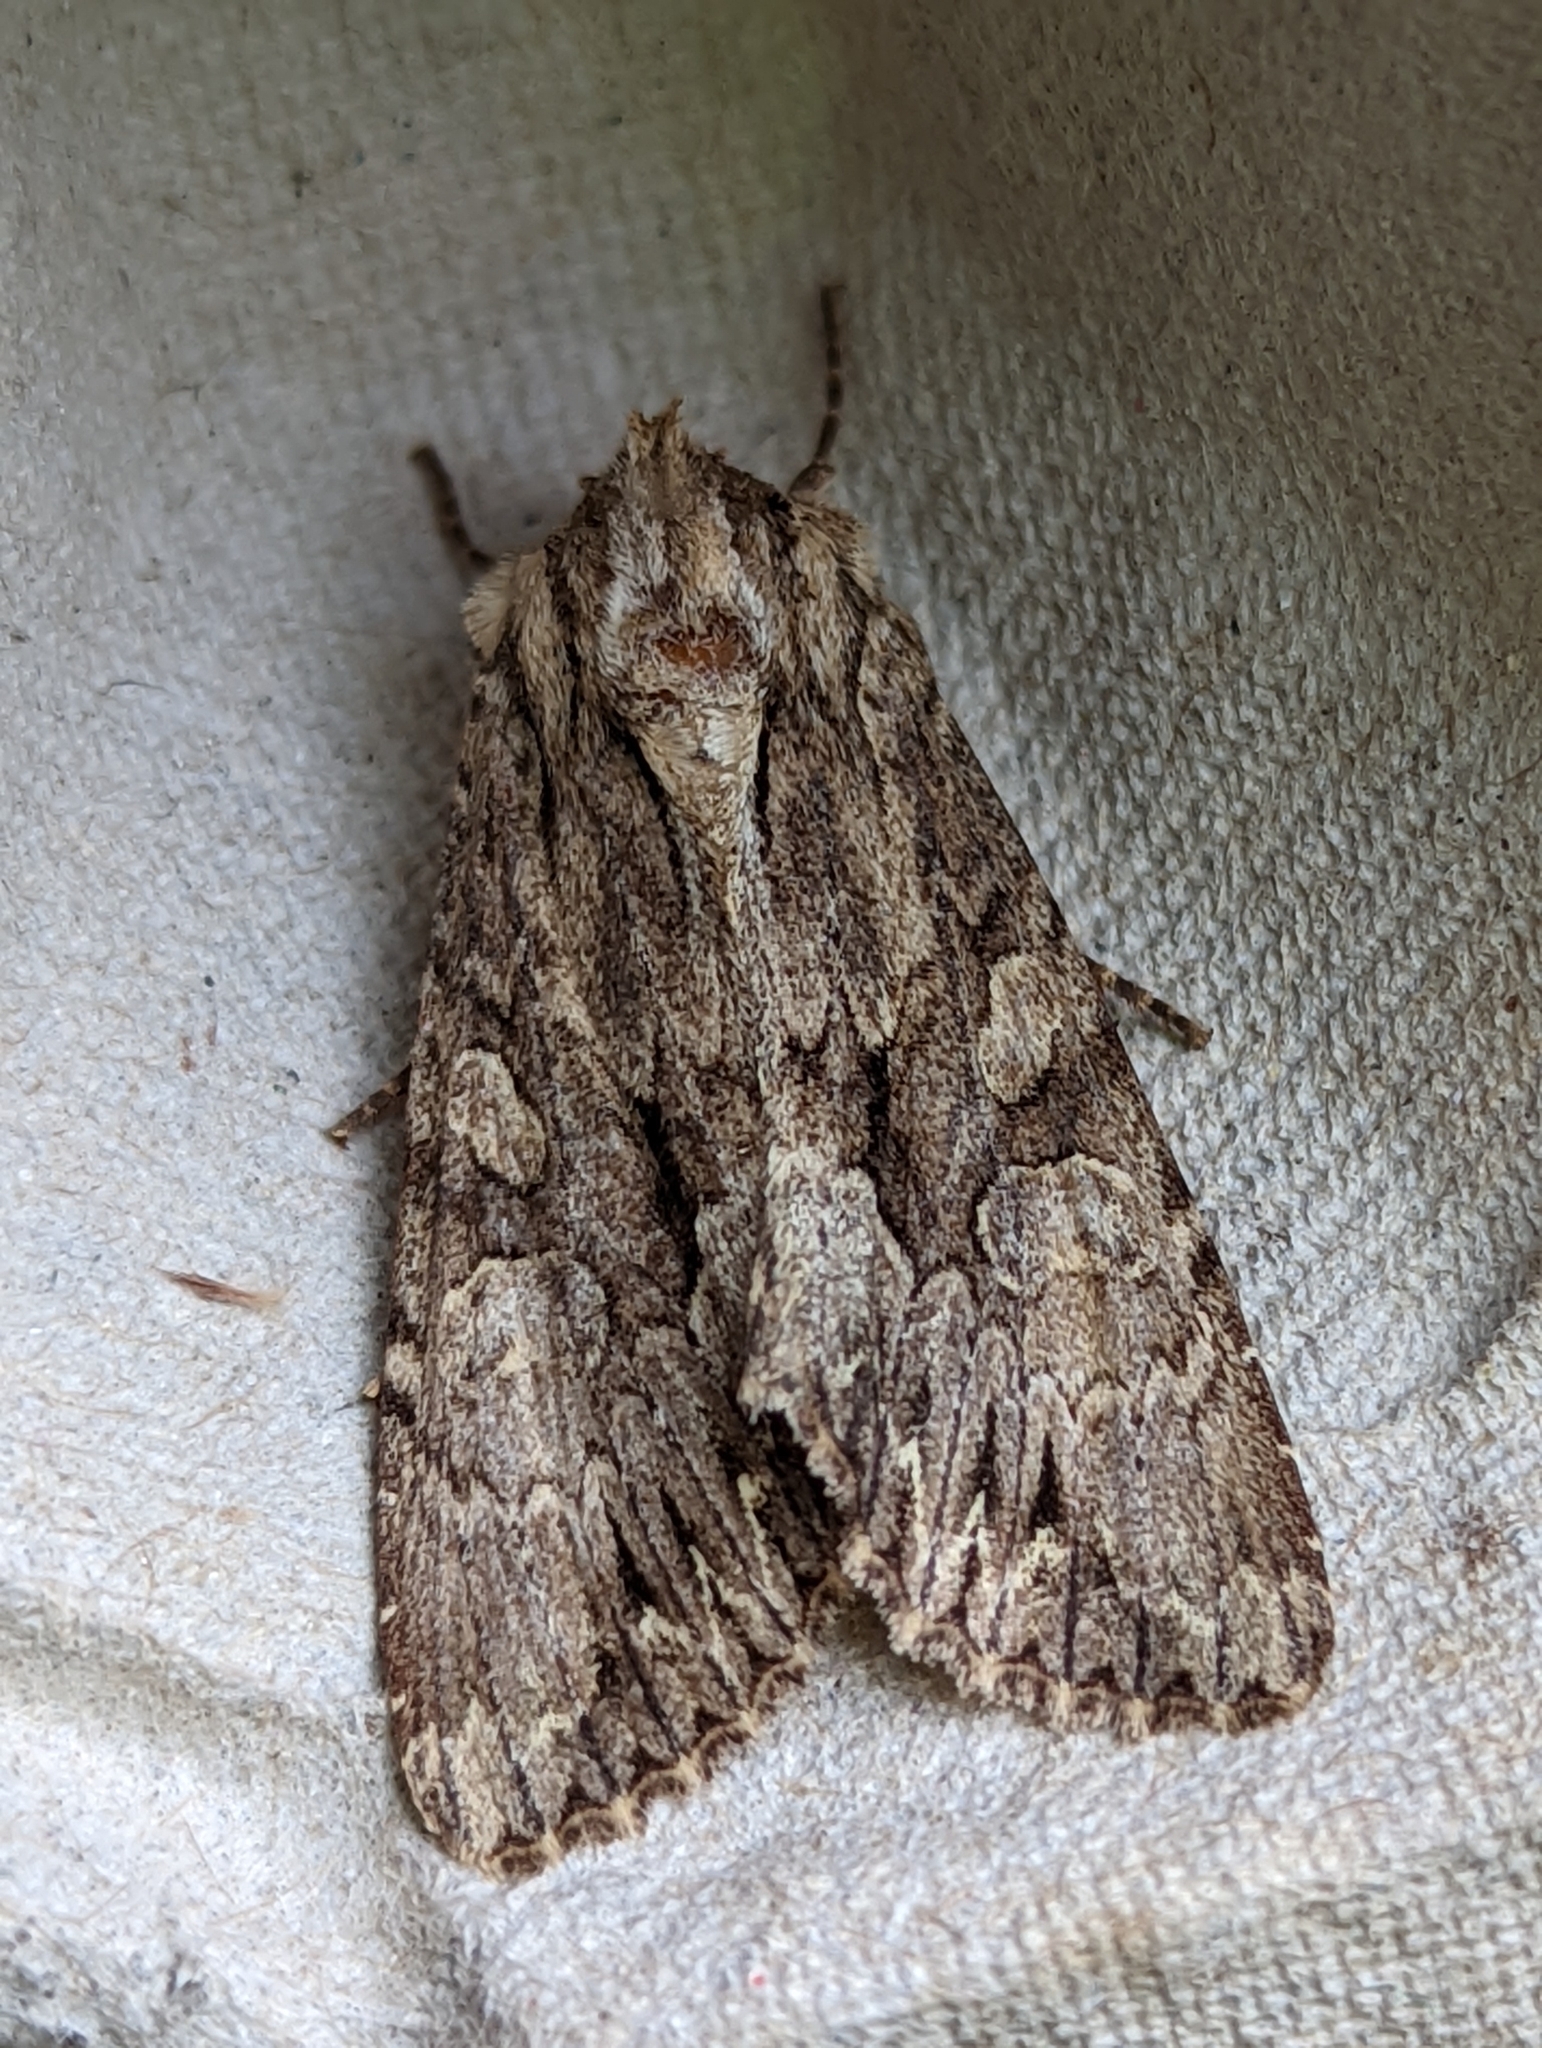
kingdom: Animalia
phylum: Arthropoda
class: Insecta
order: Lepidoptera
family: Noctuidae
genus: Apamea
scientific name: Apamea monoglypha
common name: Dark arches
